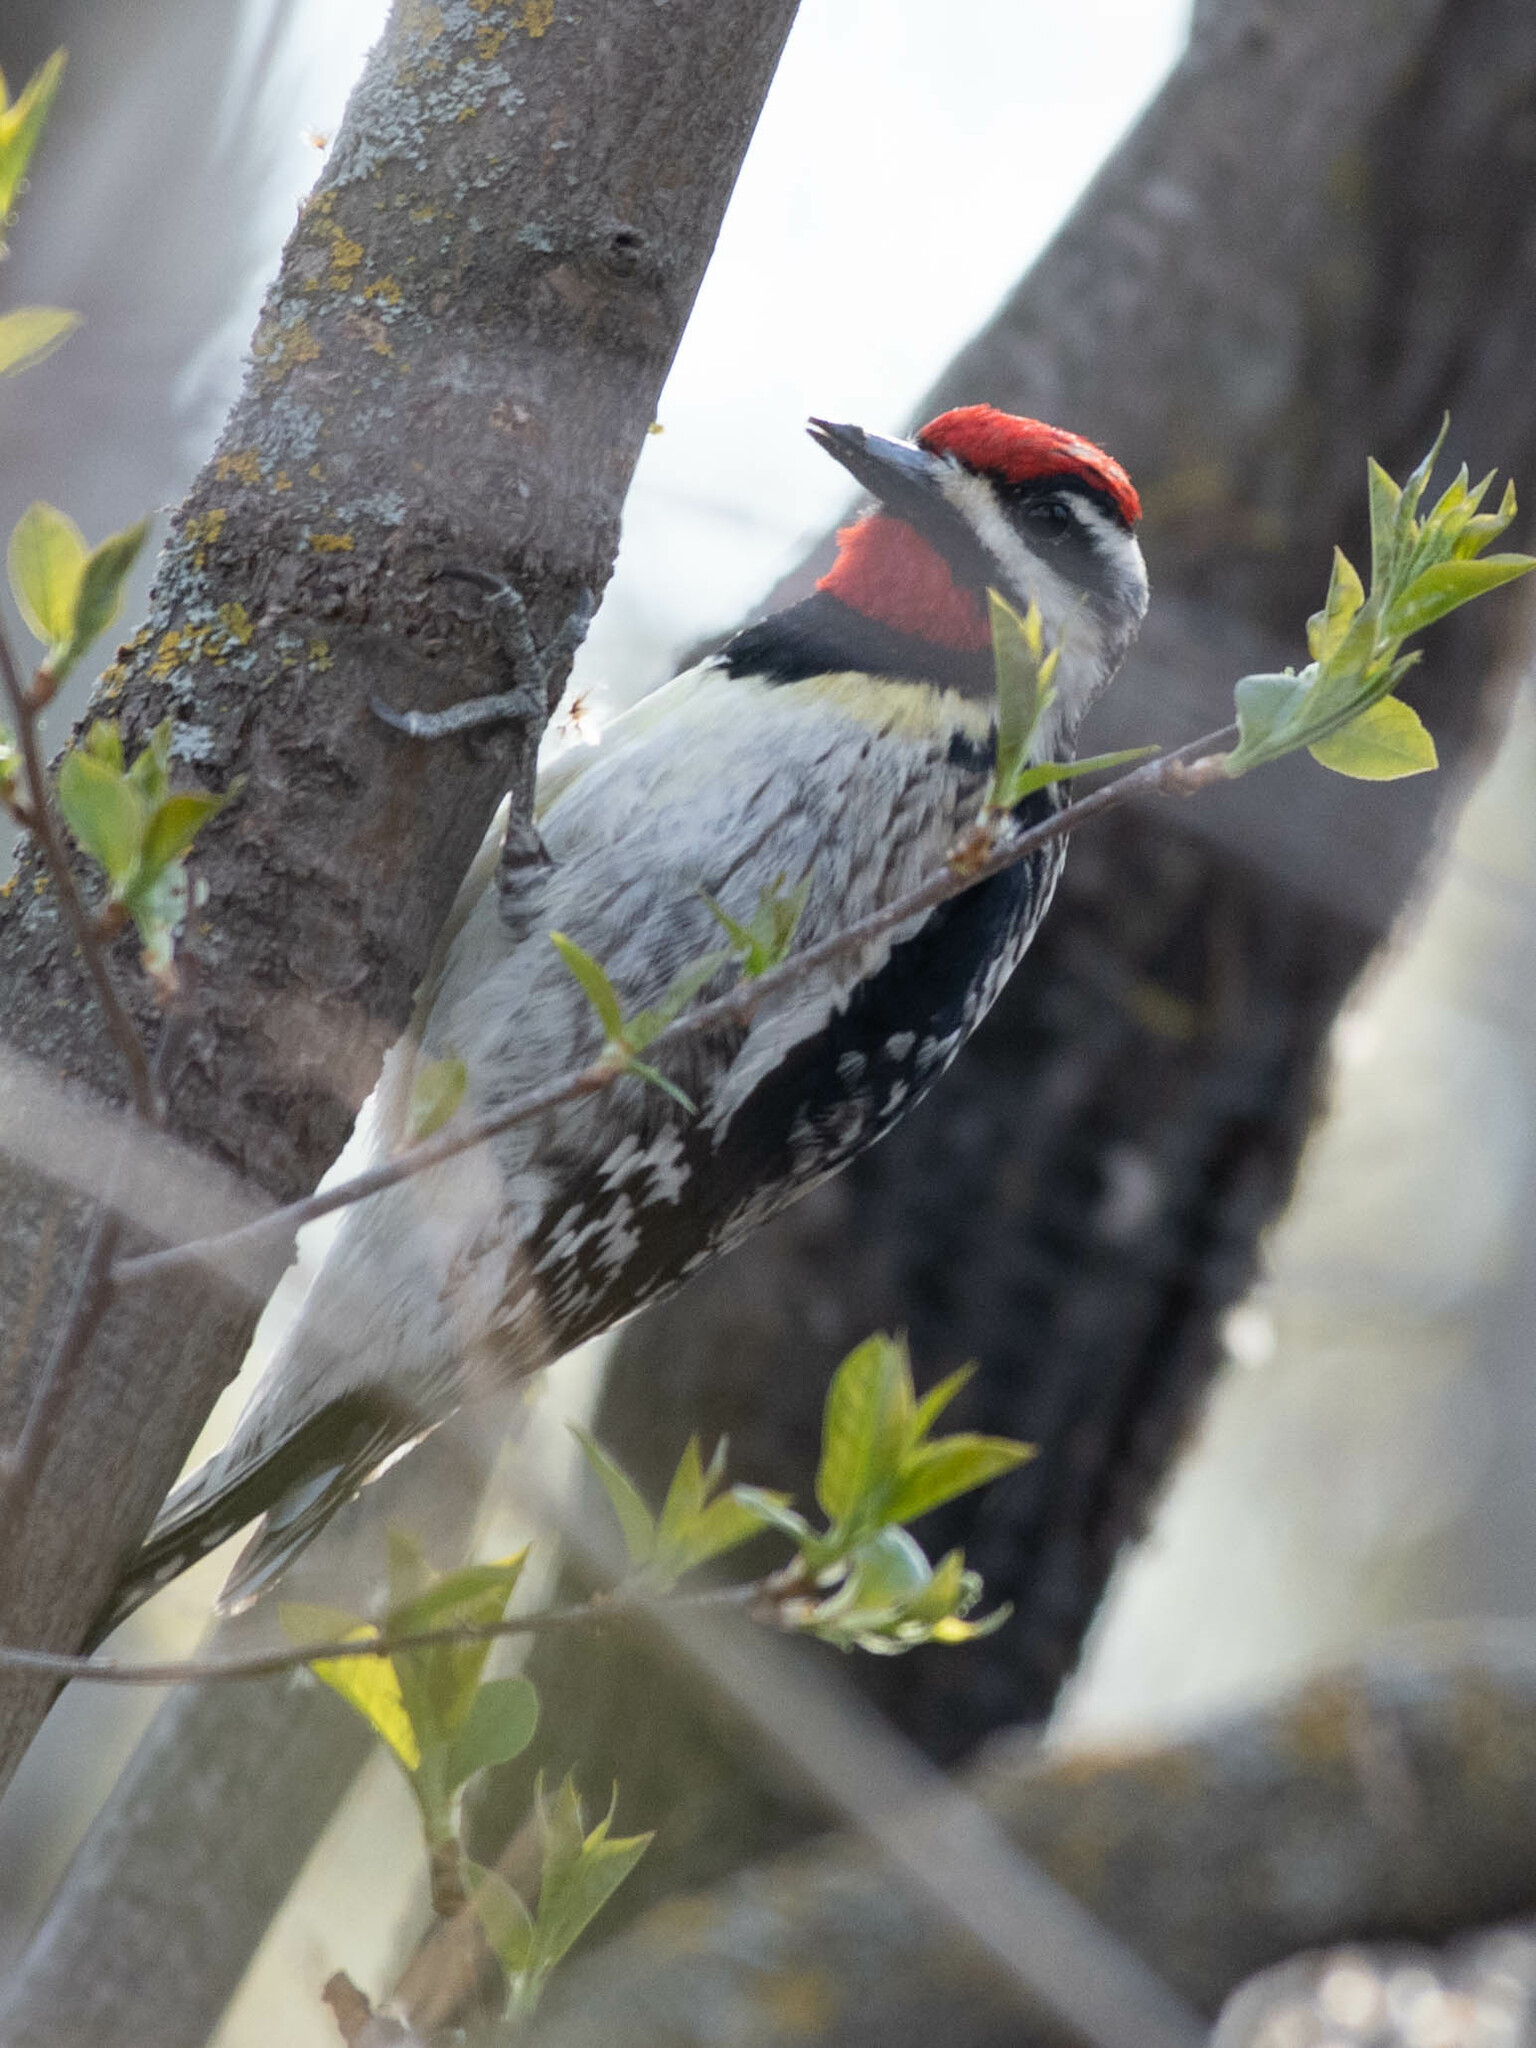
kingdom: Animalia
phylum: Chordata
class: Aves
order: Piciformes
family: Picidae
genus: Sphyrapicus
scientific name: Sphyrapicus varius
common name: Yellow-bellied sapsucker
